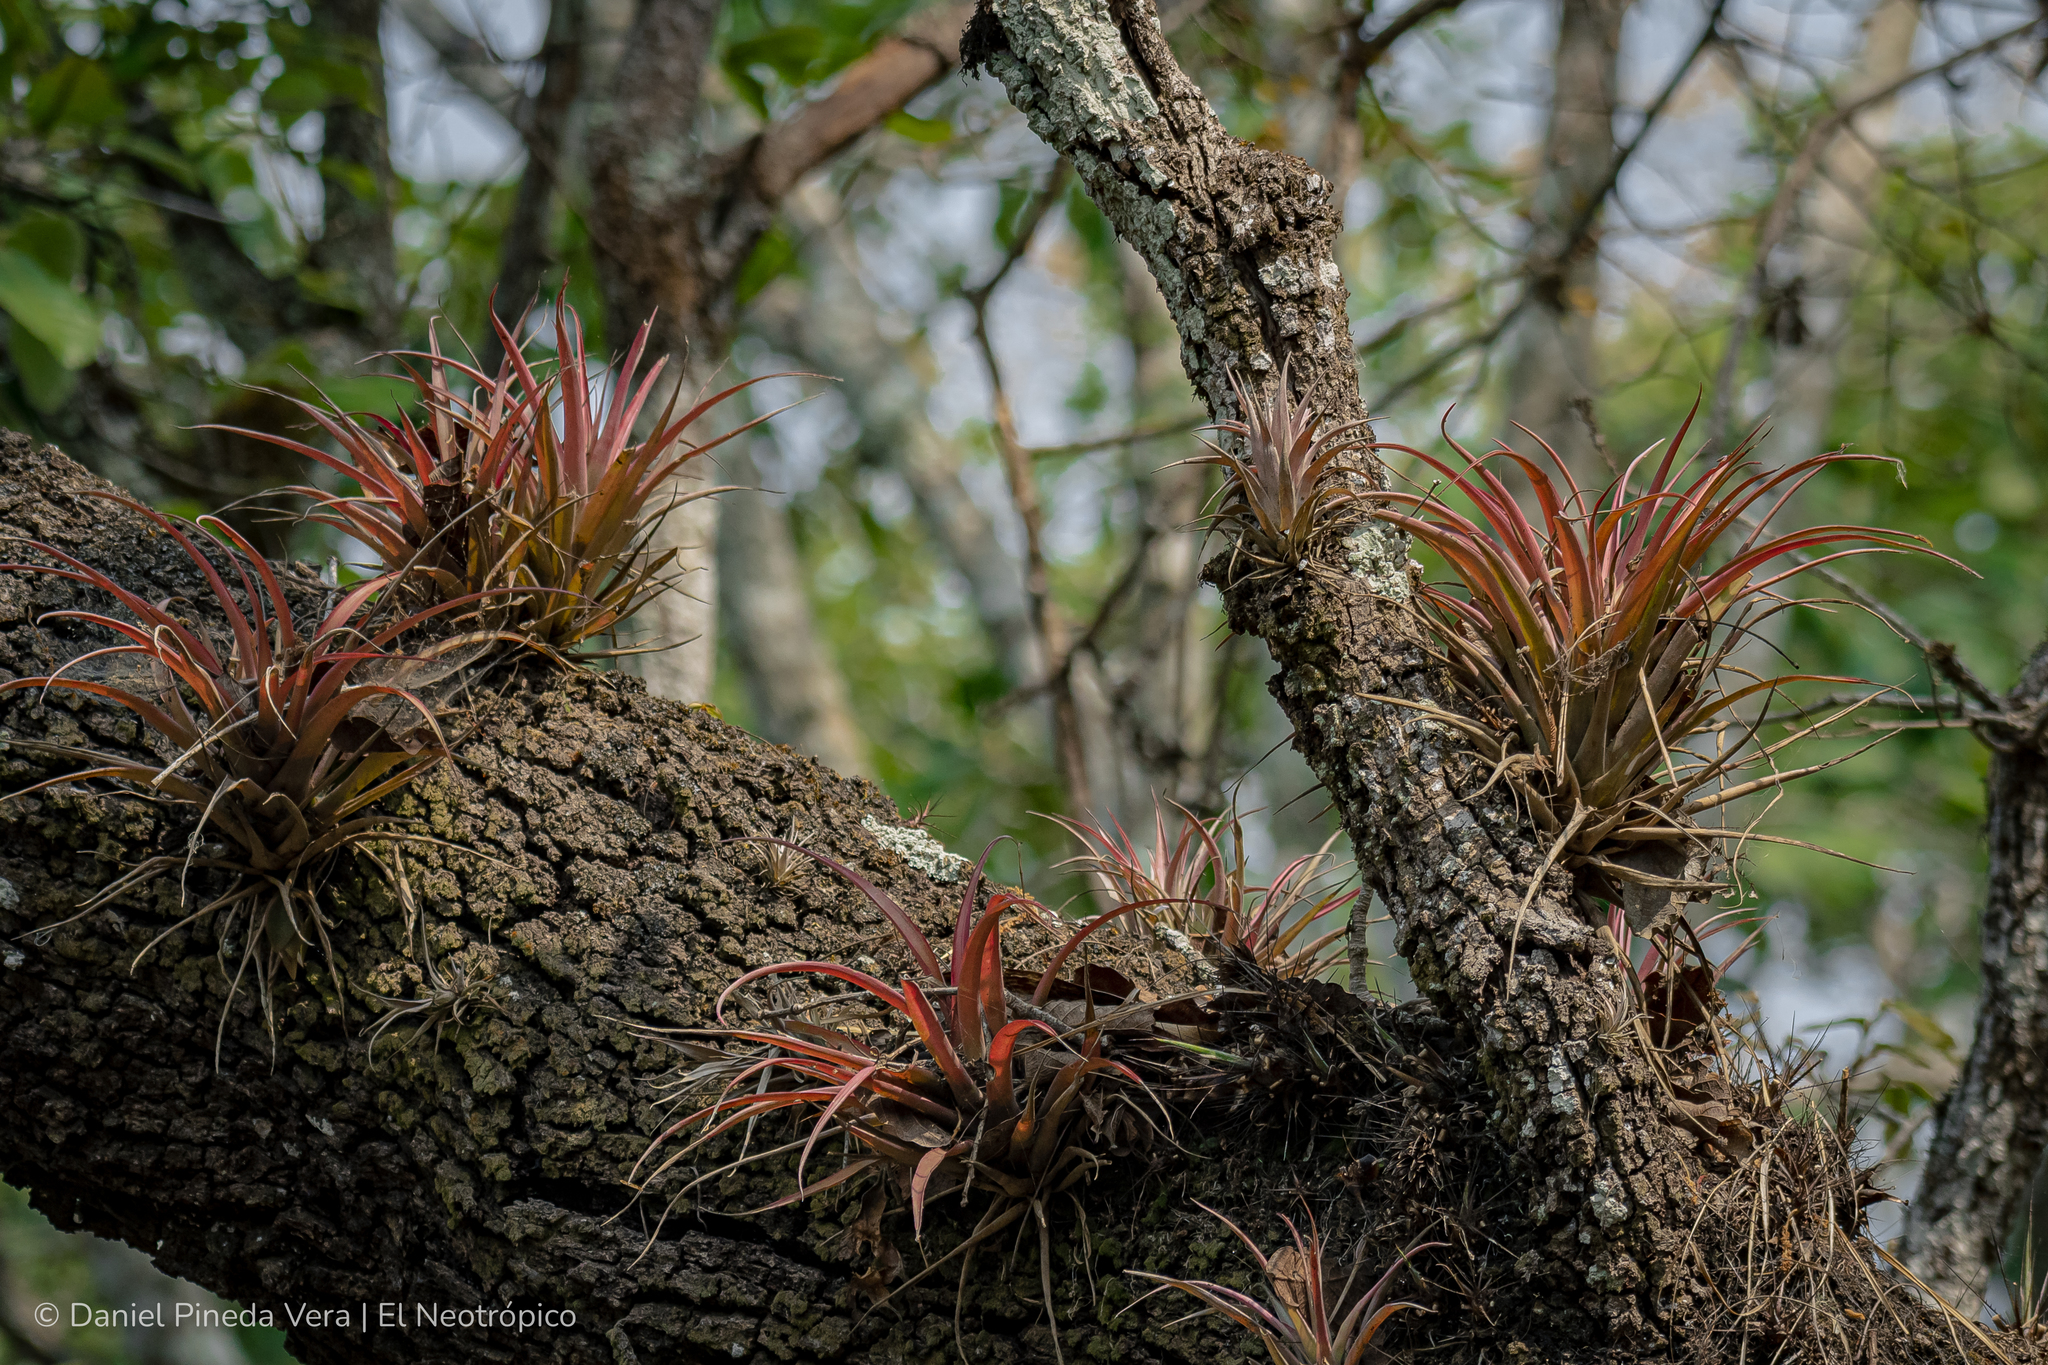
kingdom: Plantae
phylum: Tracheophyta
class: Liliopsida
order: Poales
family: Bromeliaceae
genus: Tillandsia
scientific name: Tillandsia flabellata
